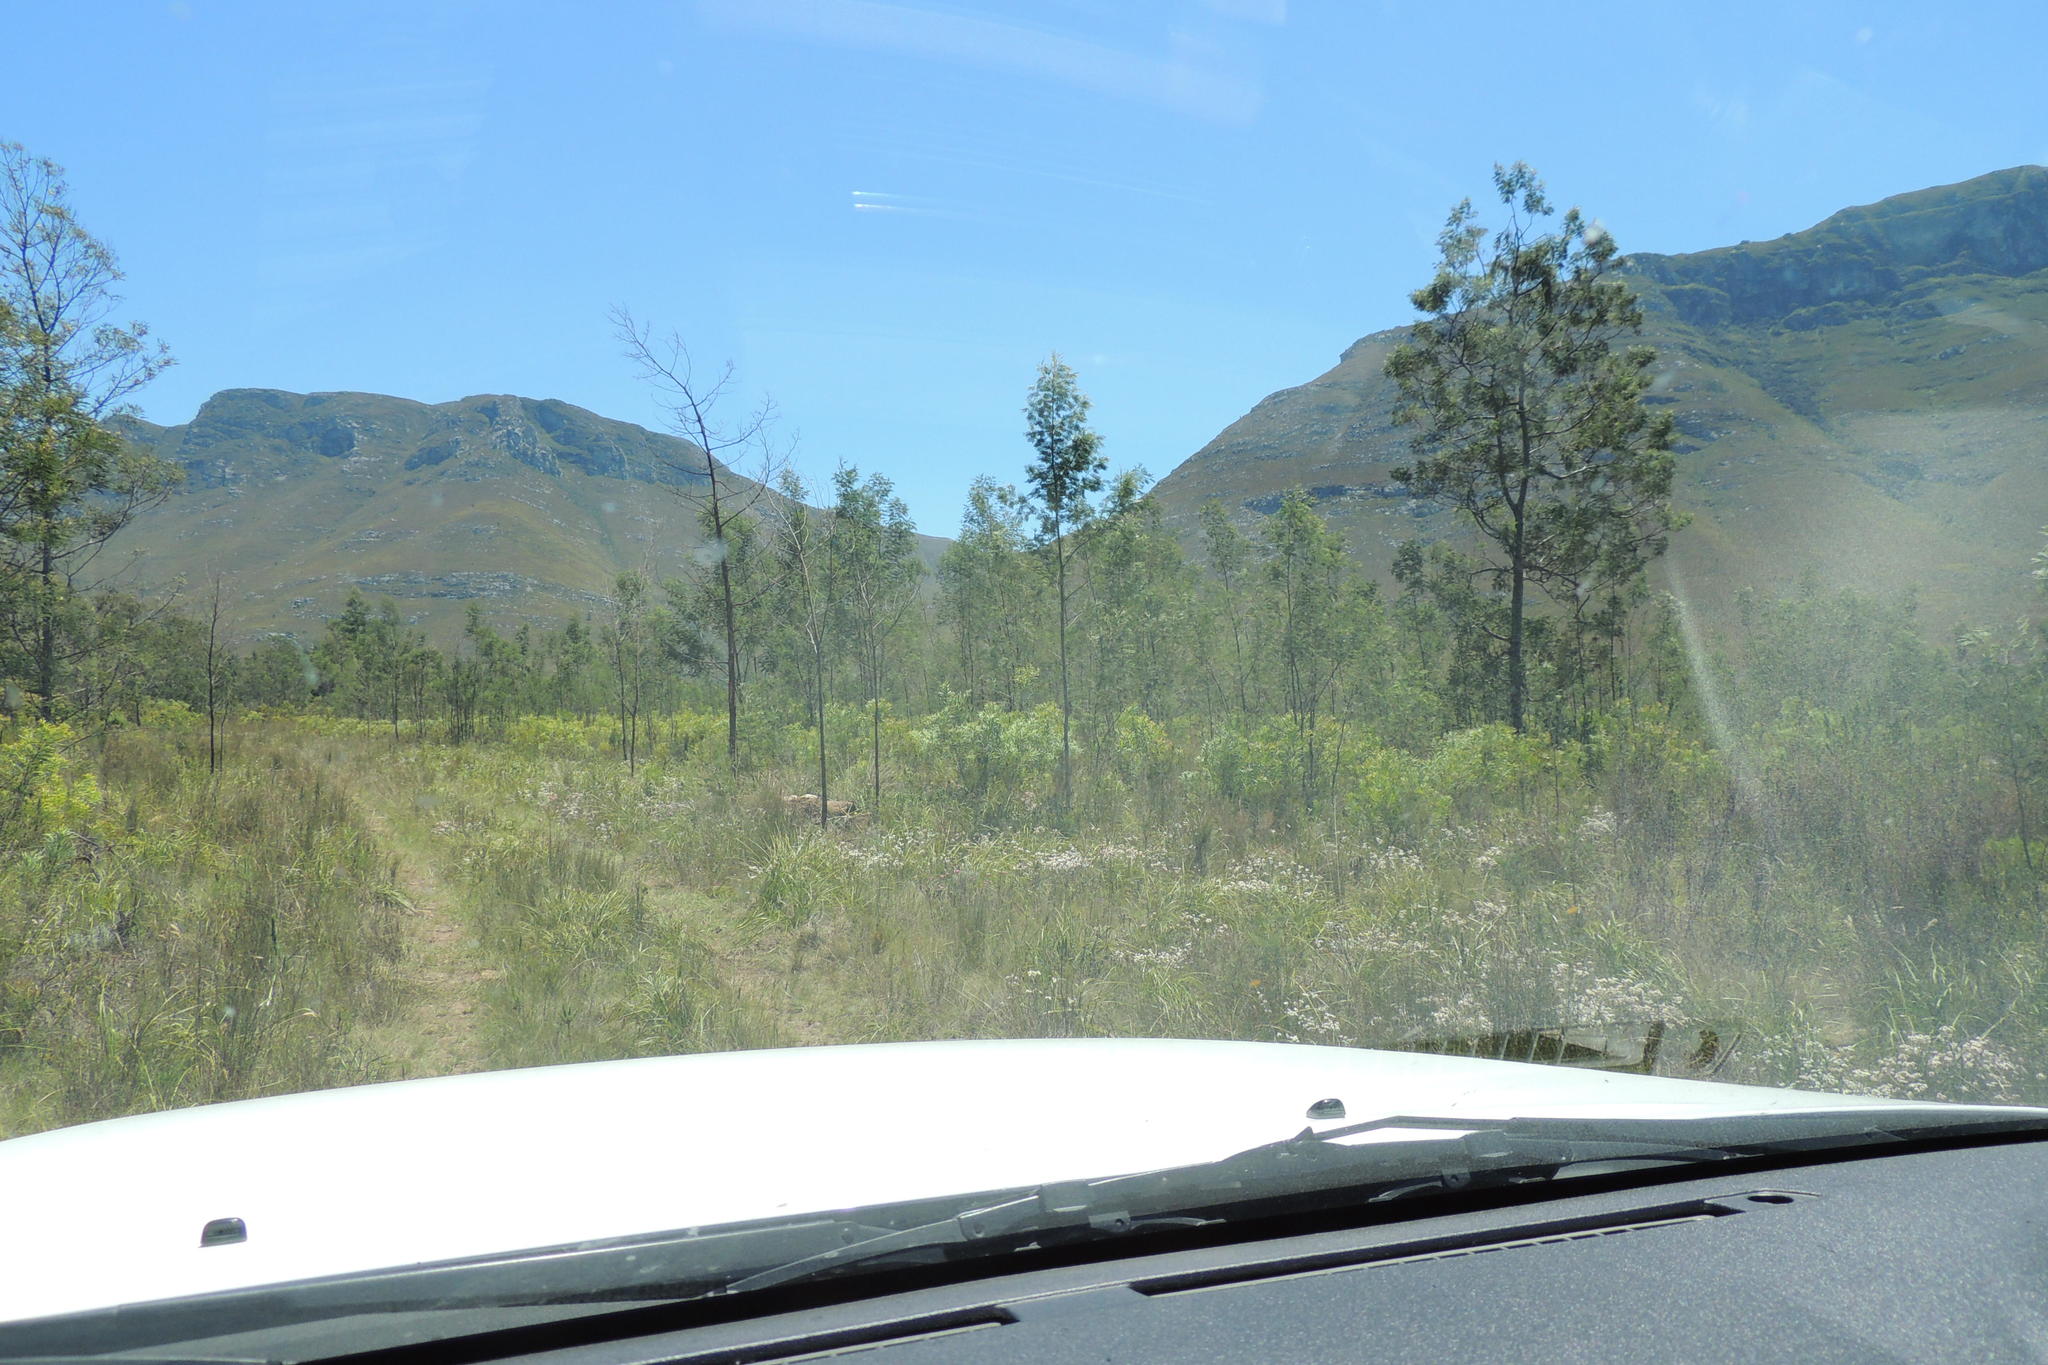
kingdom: Plantae
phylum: Tracheophyta
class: Magnoliopsida
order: Fabales
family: Fabaceae
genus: Acacia
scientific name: Acacia mearnsii
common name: Black wattle
